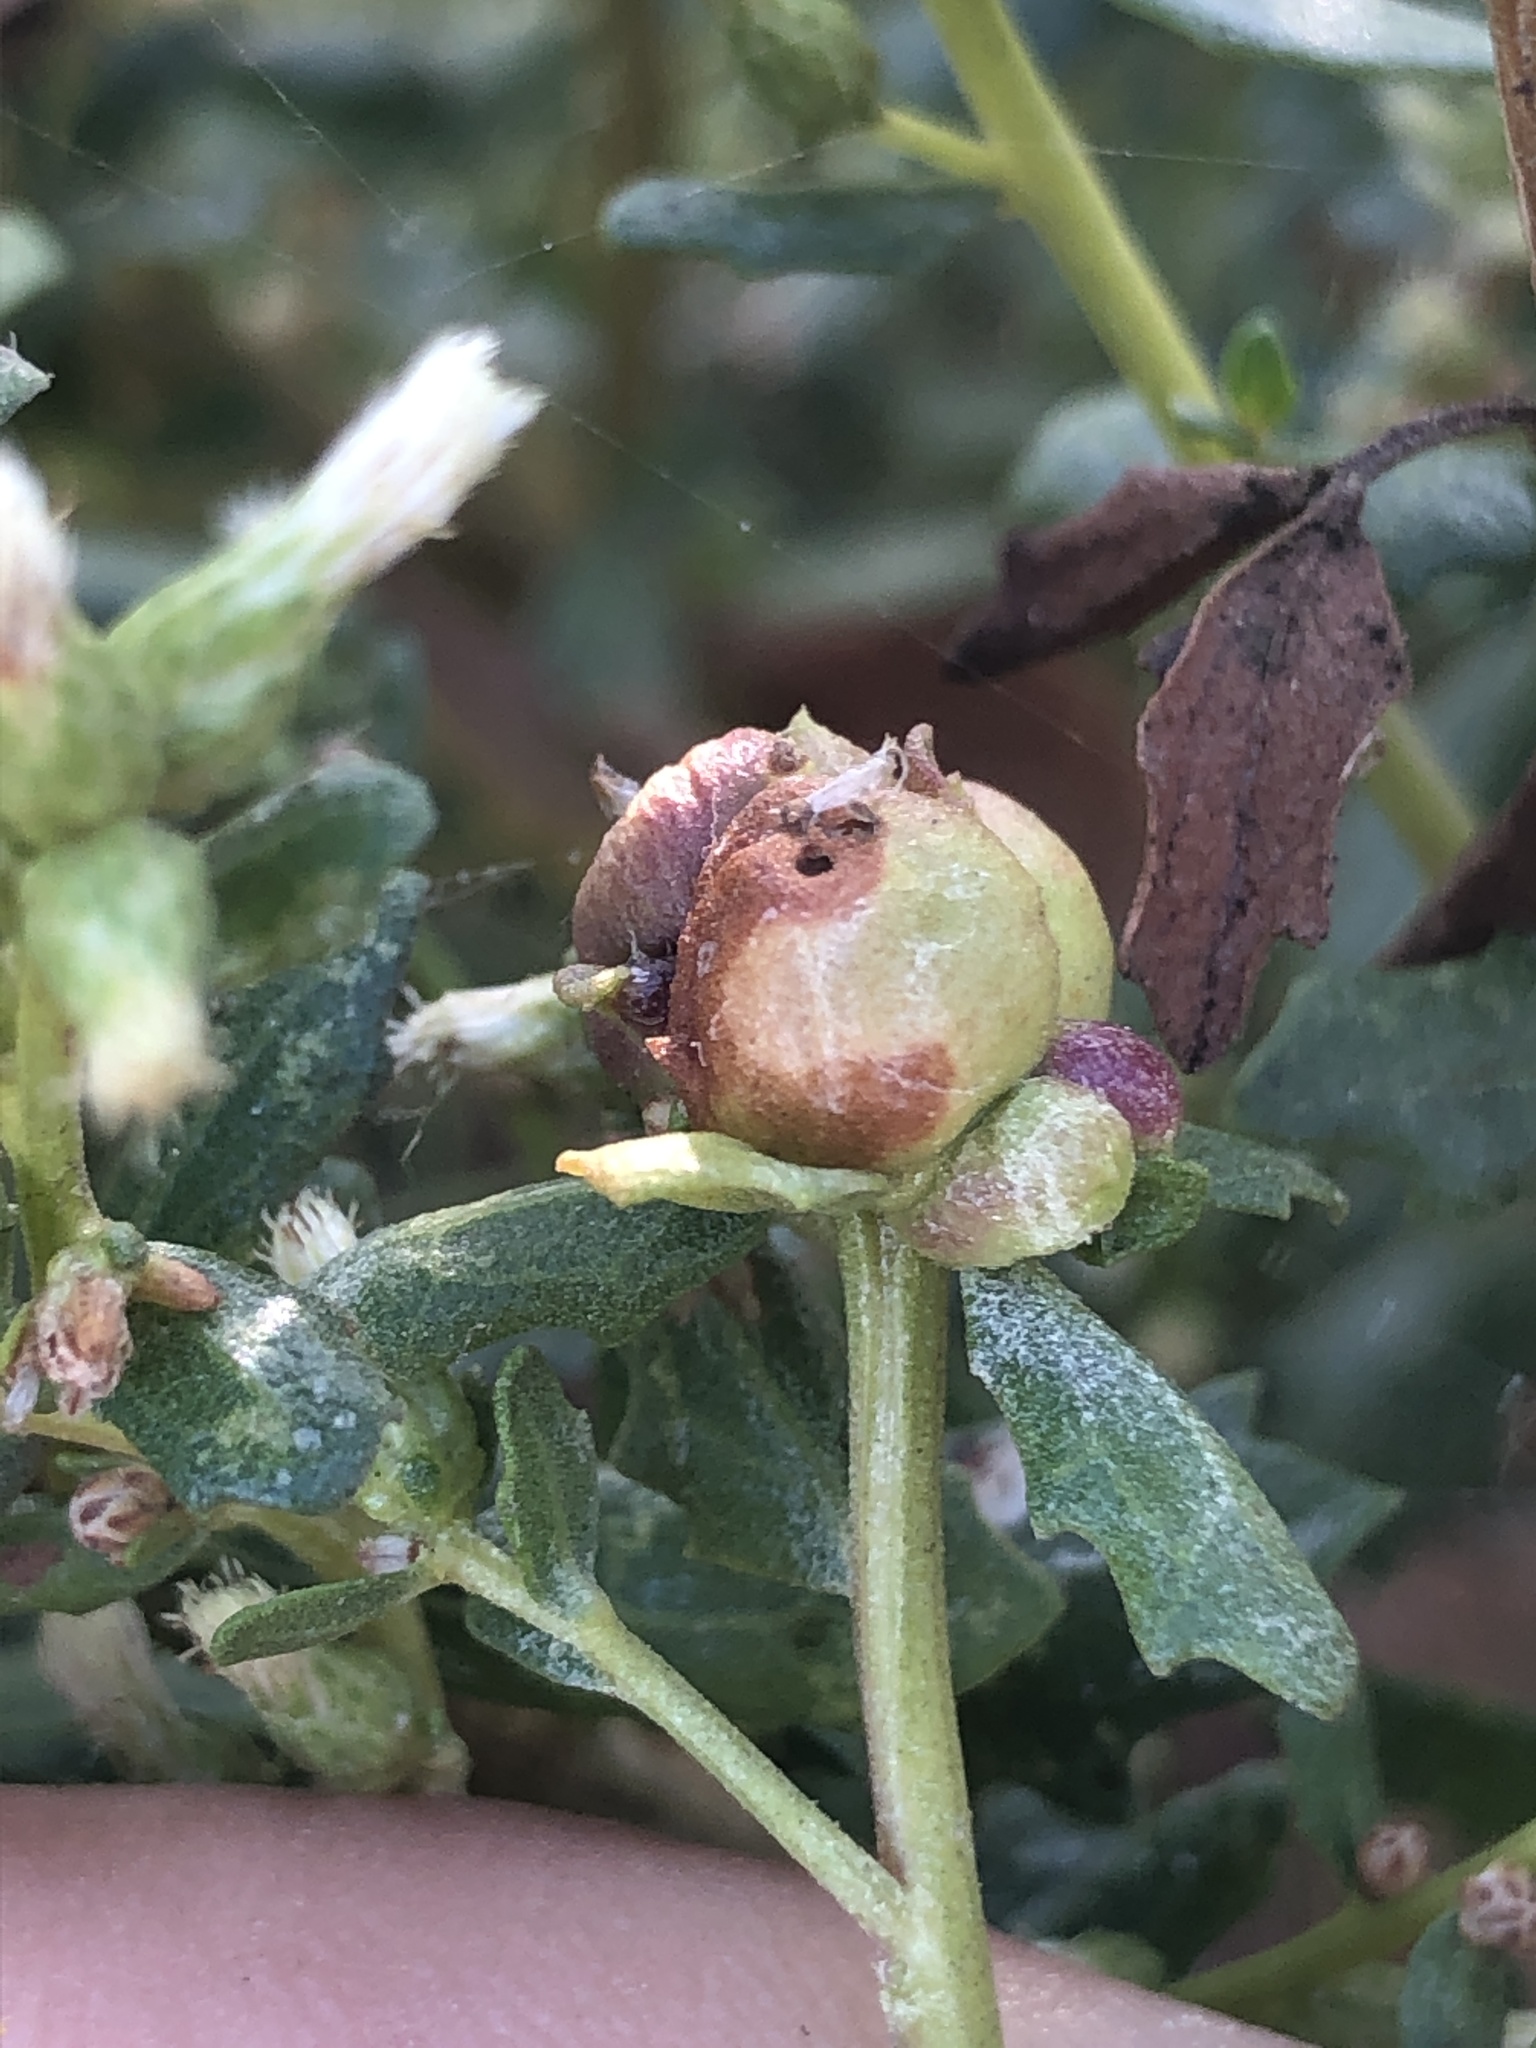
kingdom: Animalia
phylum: Arthropoda
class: Insecta
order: Diptera
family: Cecidomyiidae
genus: Rhopalomyia
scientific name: Rhopalomyia californica
